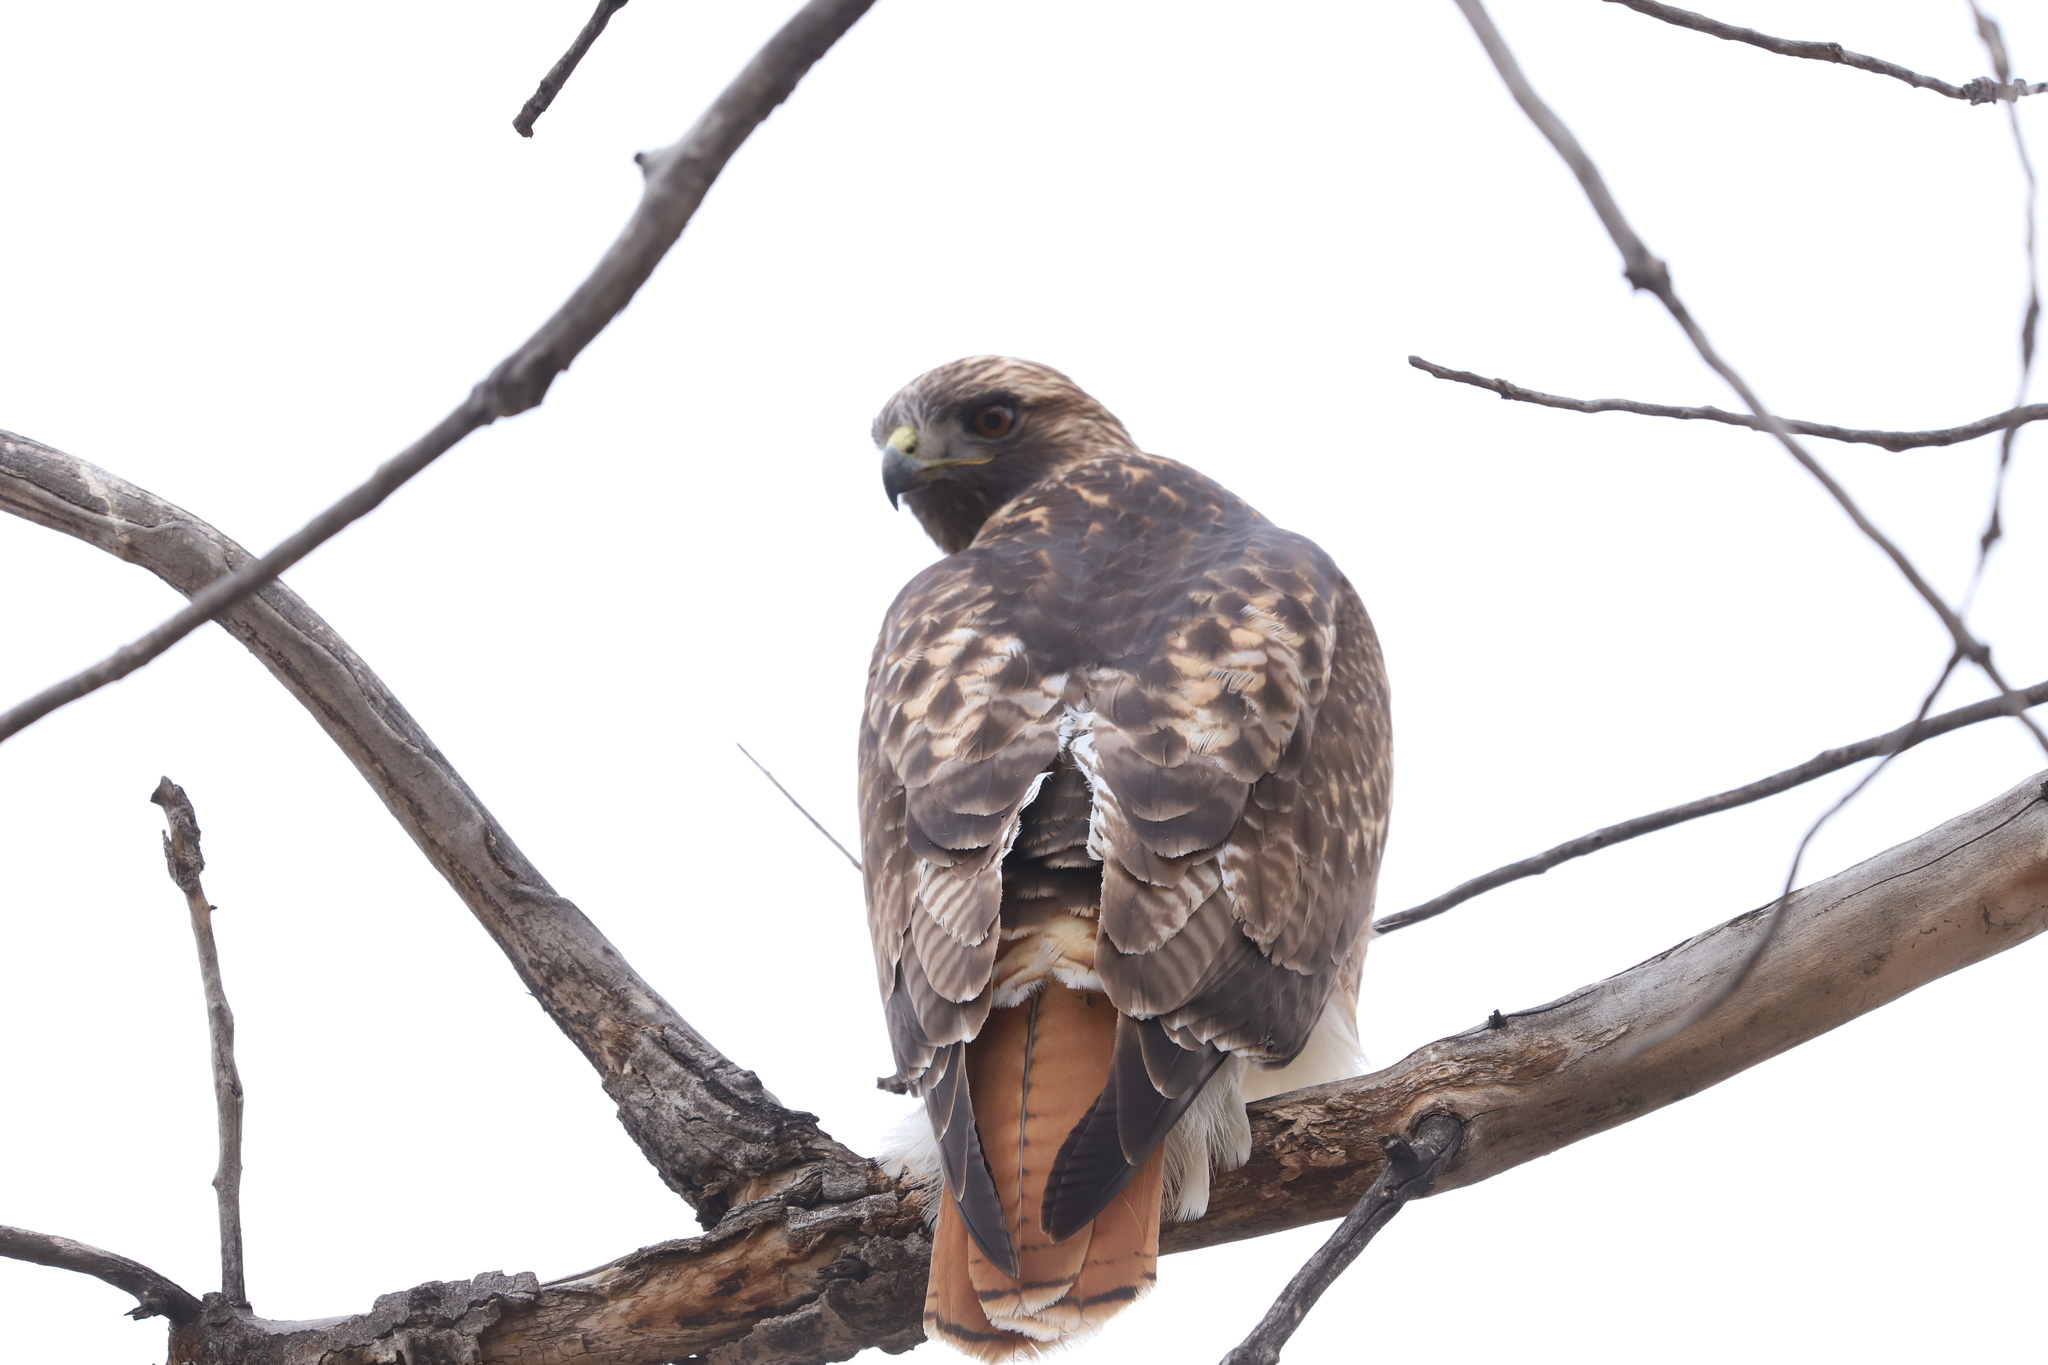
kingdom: Animalia
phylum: Chordata
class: Aves
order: Accipitriformes
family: Accipitridae
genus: Buteo
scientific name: Buteo jamaicensis
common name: Red-tailed hawk
